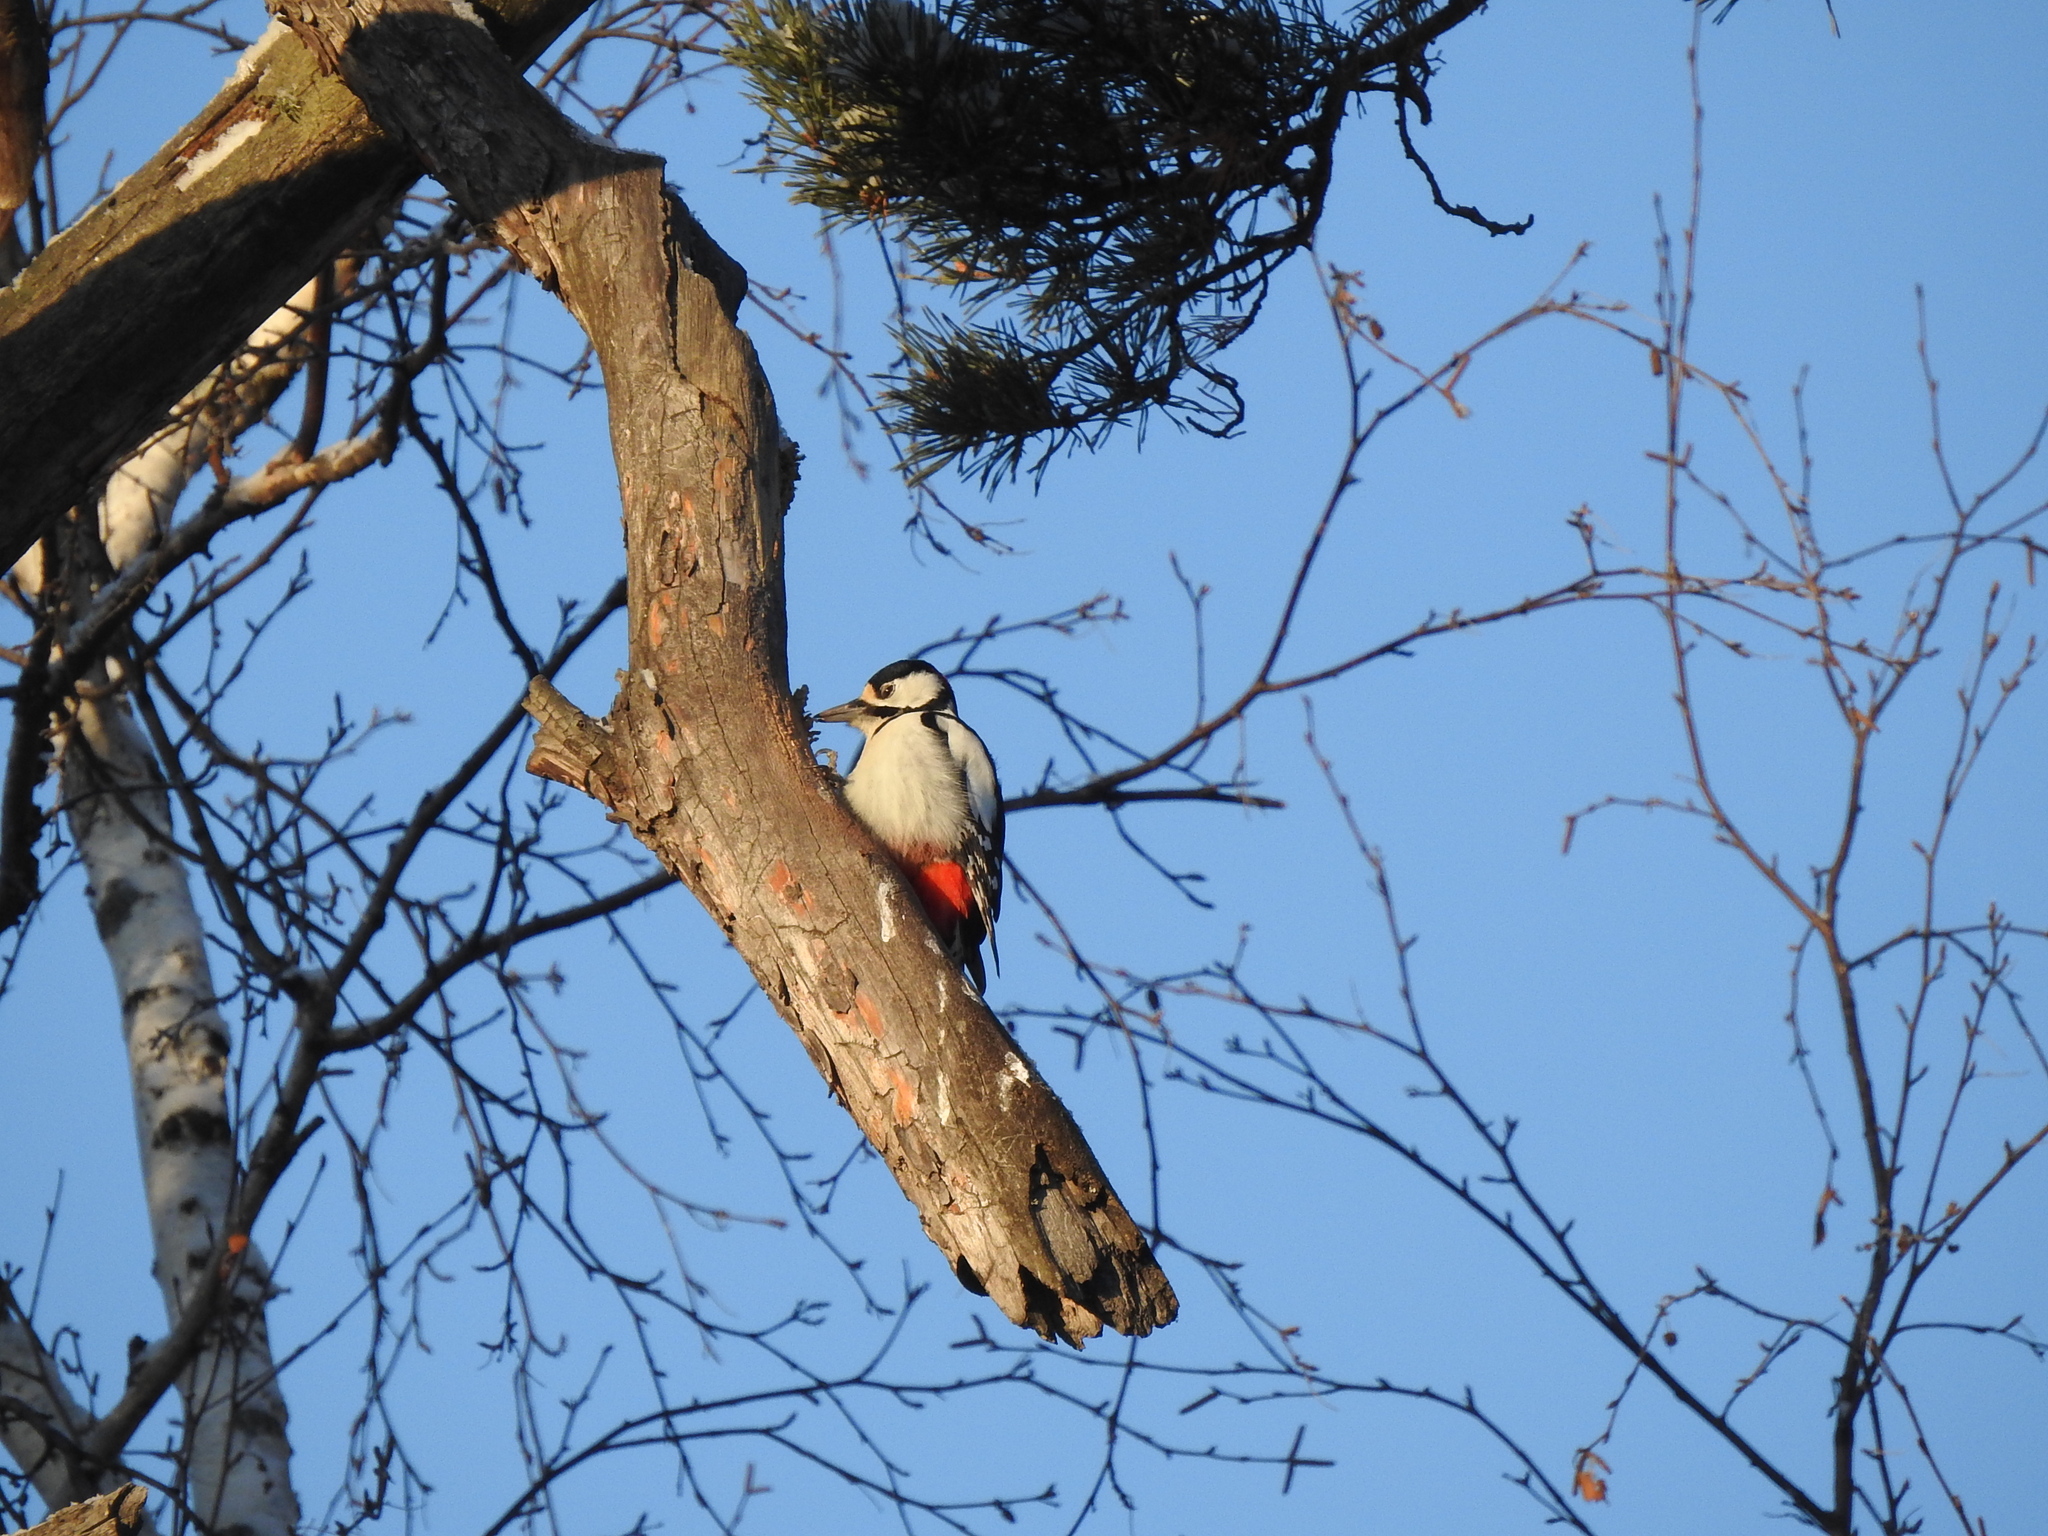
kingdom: Animalia
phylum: Chordata
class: Aves
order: Piciformes
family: Picidae
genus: Dendrocopos
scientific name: Dendrocopos major
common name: Great spotted woodpecker
